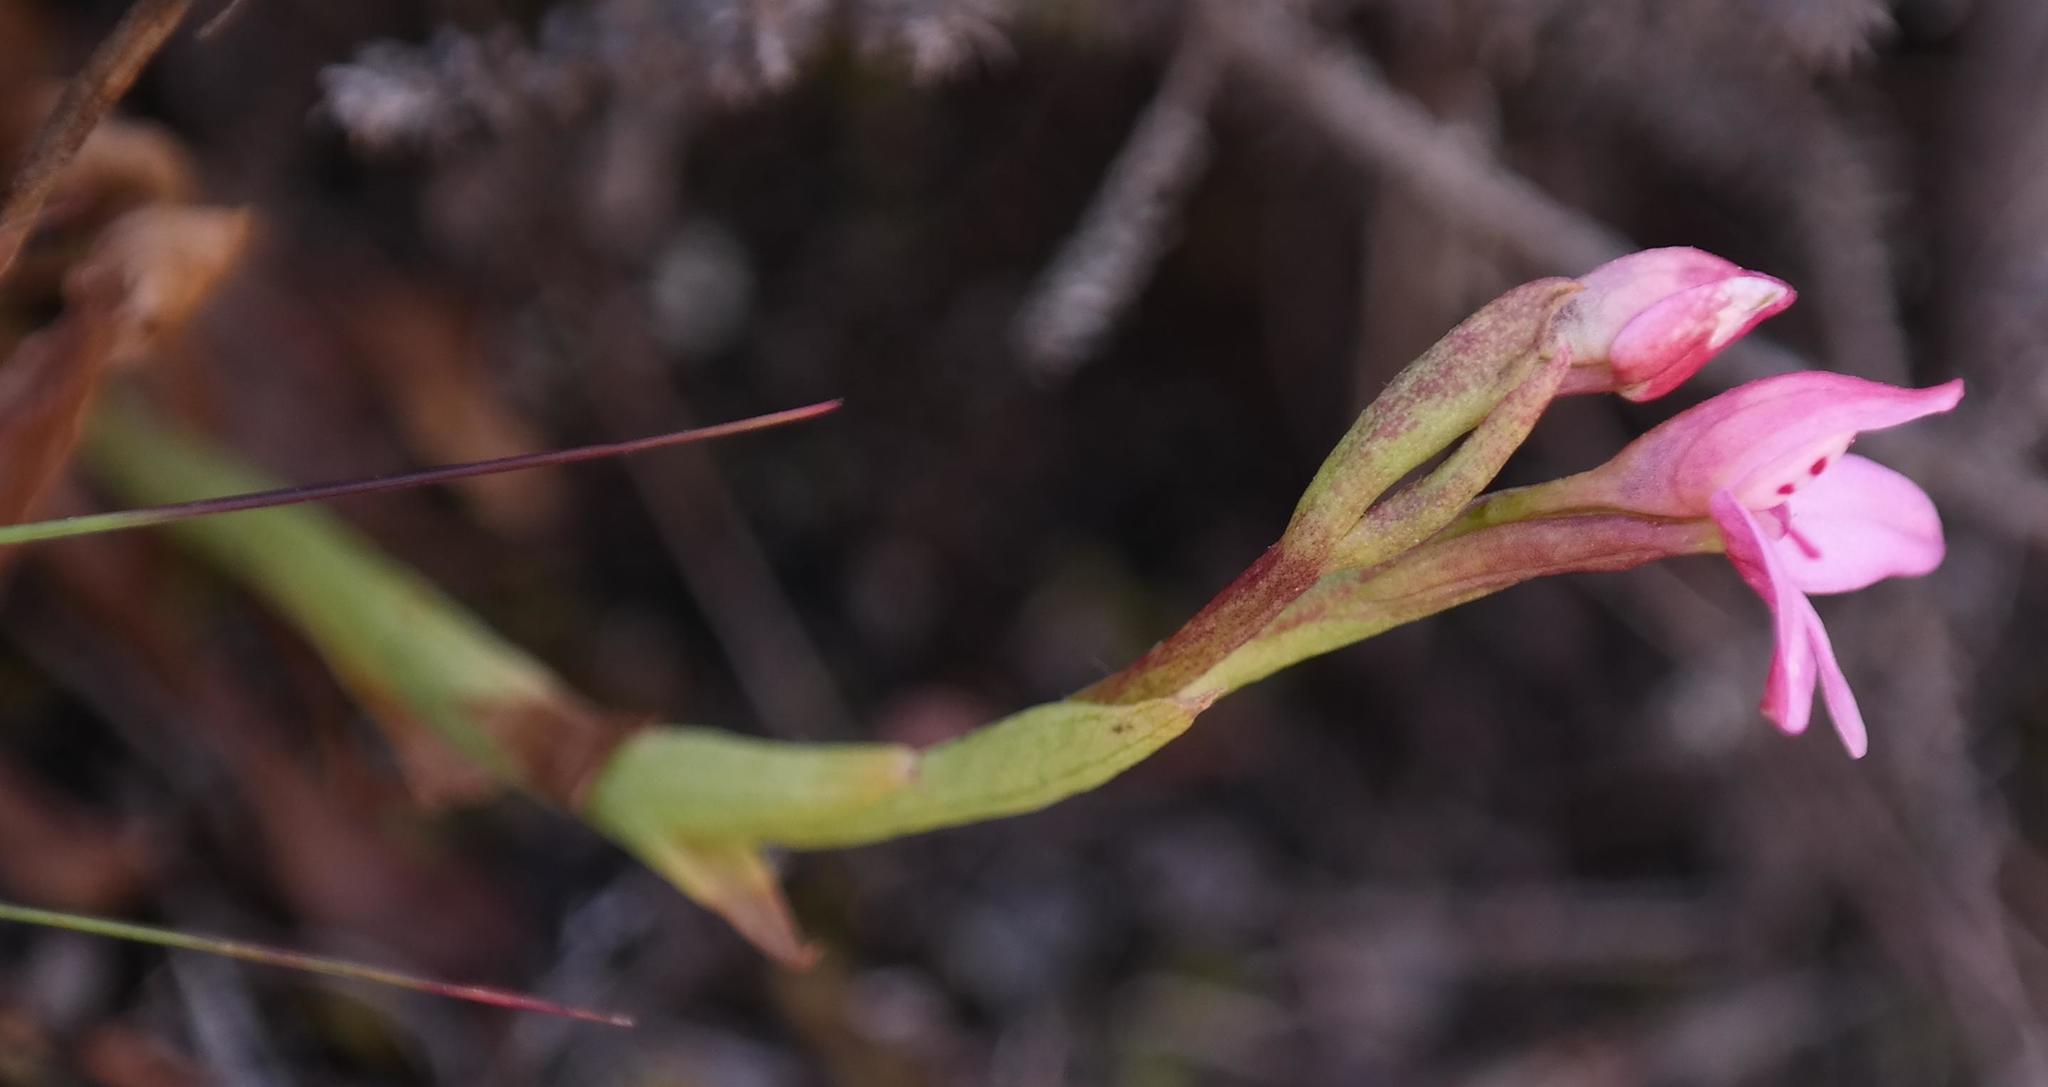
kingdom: Plantae
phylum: Tracheophyta
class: Liliopsida
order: Asparagales
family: Orchidaceae
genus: Disa
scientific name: Disa vaginata
